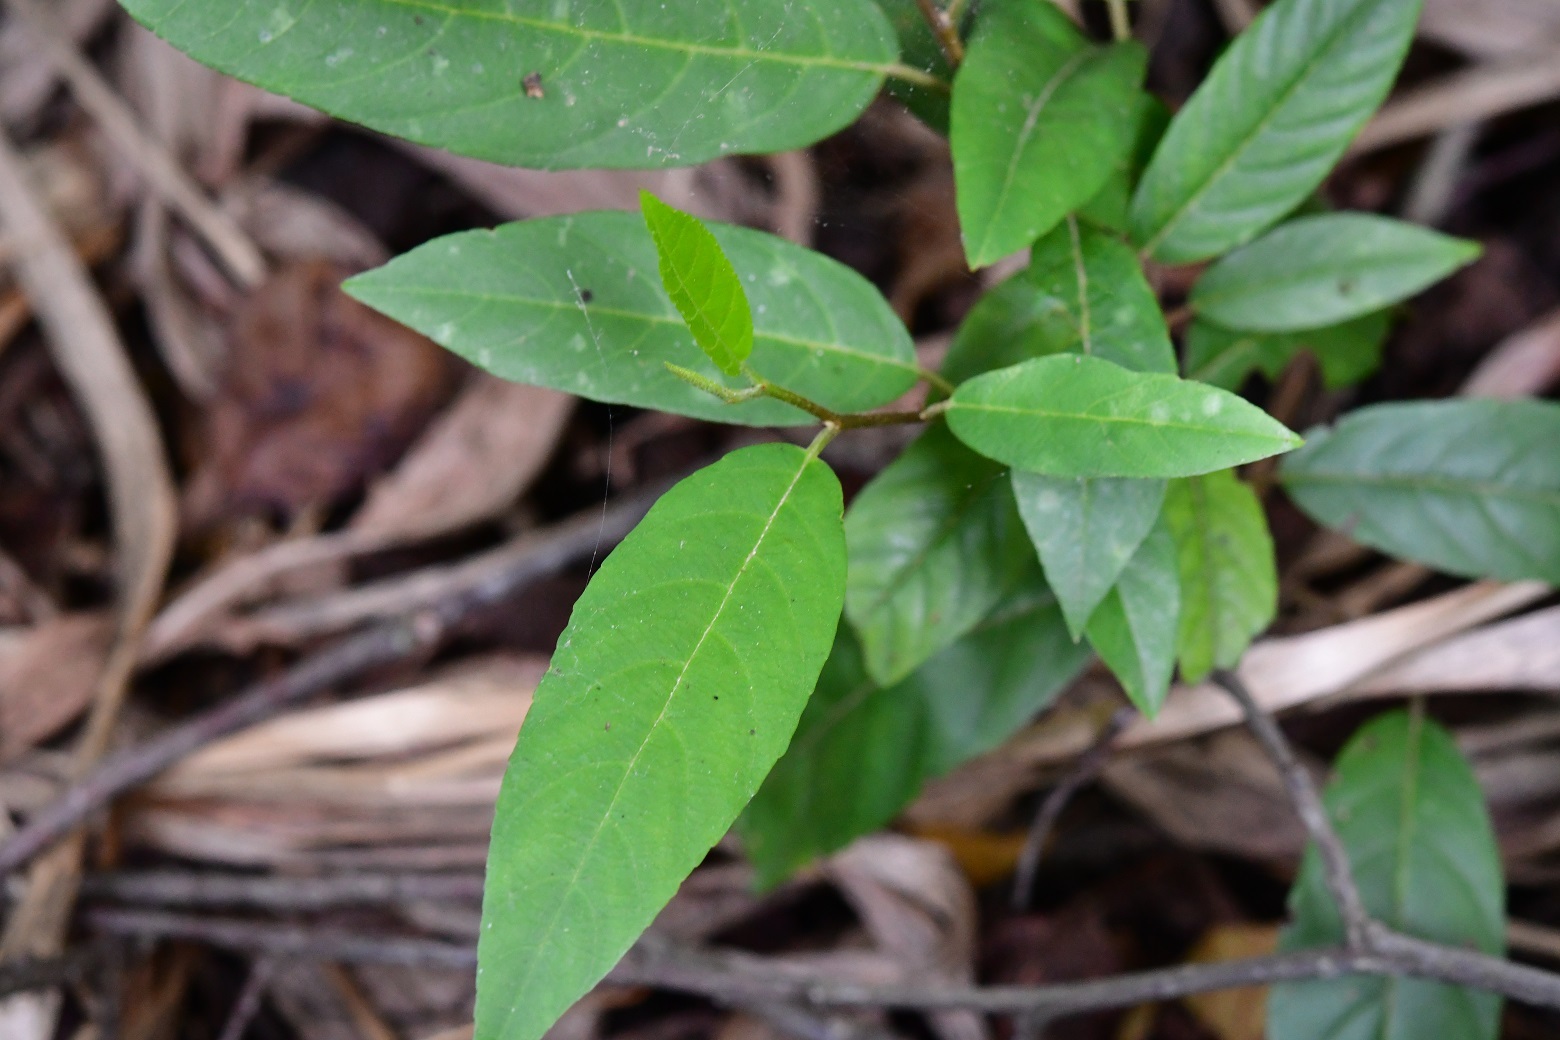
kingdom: Plantae
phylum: Tracheophyta
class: Magnoliopsida
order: Rosales
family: Rhamnaceae
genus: Frangula
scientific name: Frangula mucronata
